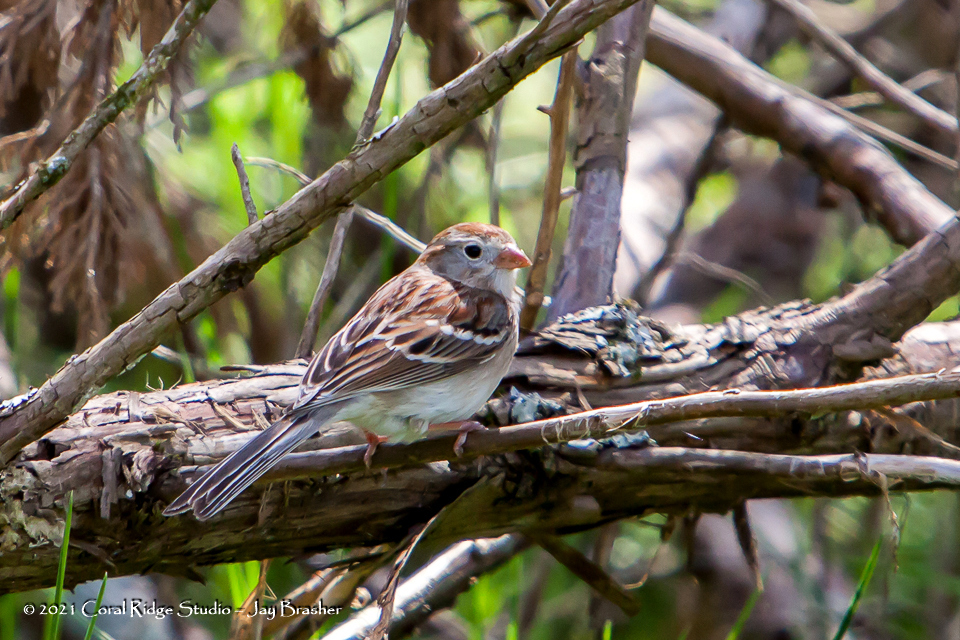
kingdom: Animalia
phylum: Chordata
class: Aves
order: Passeriformes
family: Passerellidae
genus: Spizella
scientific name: Spizella pusilla
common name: Field sparrow
